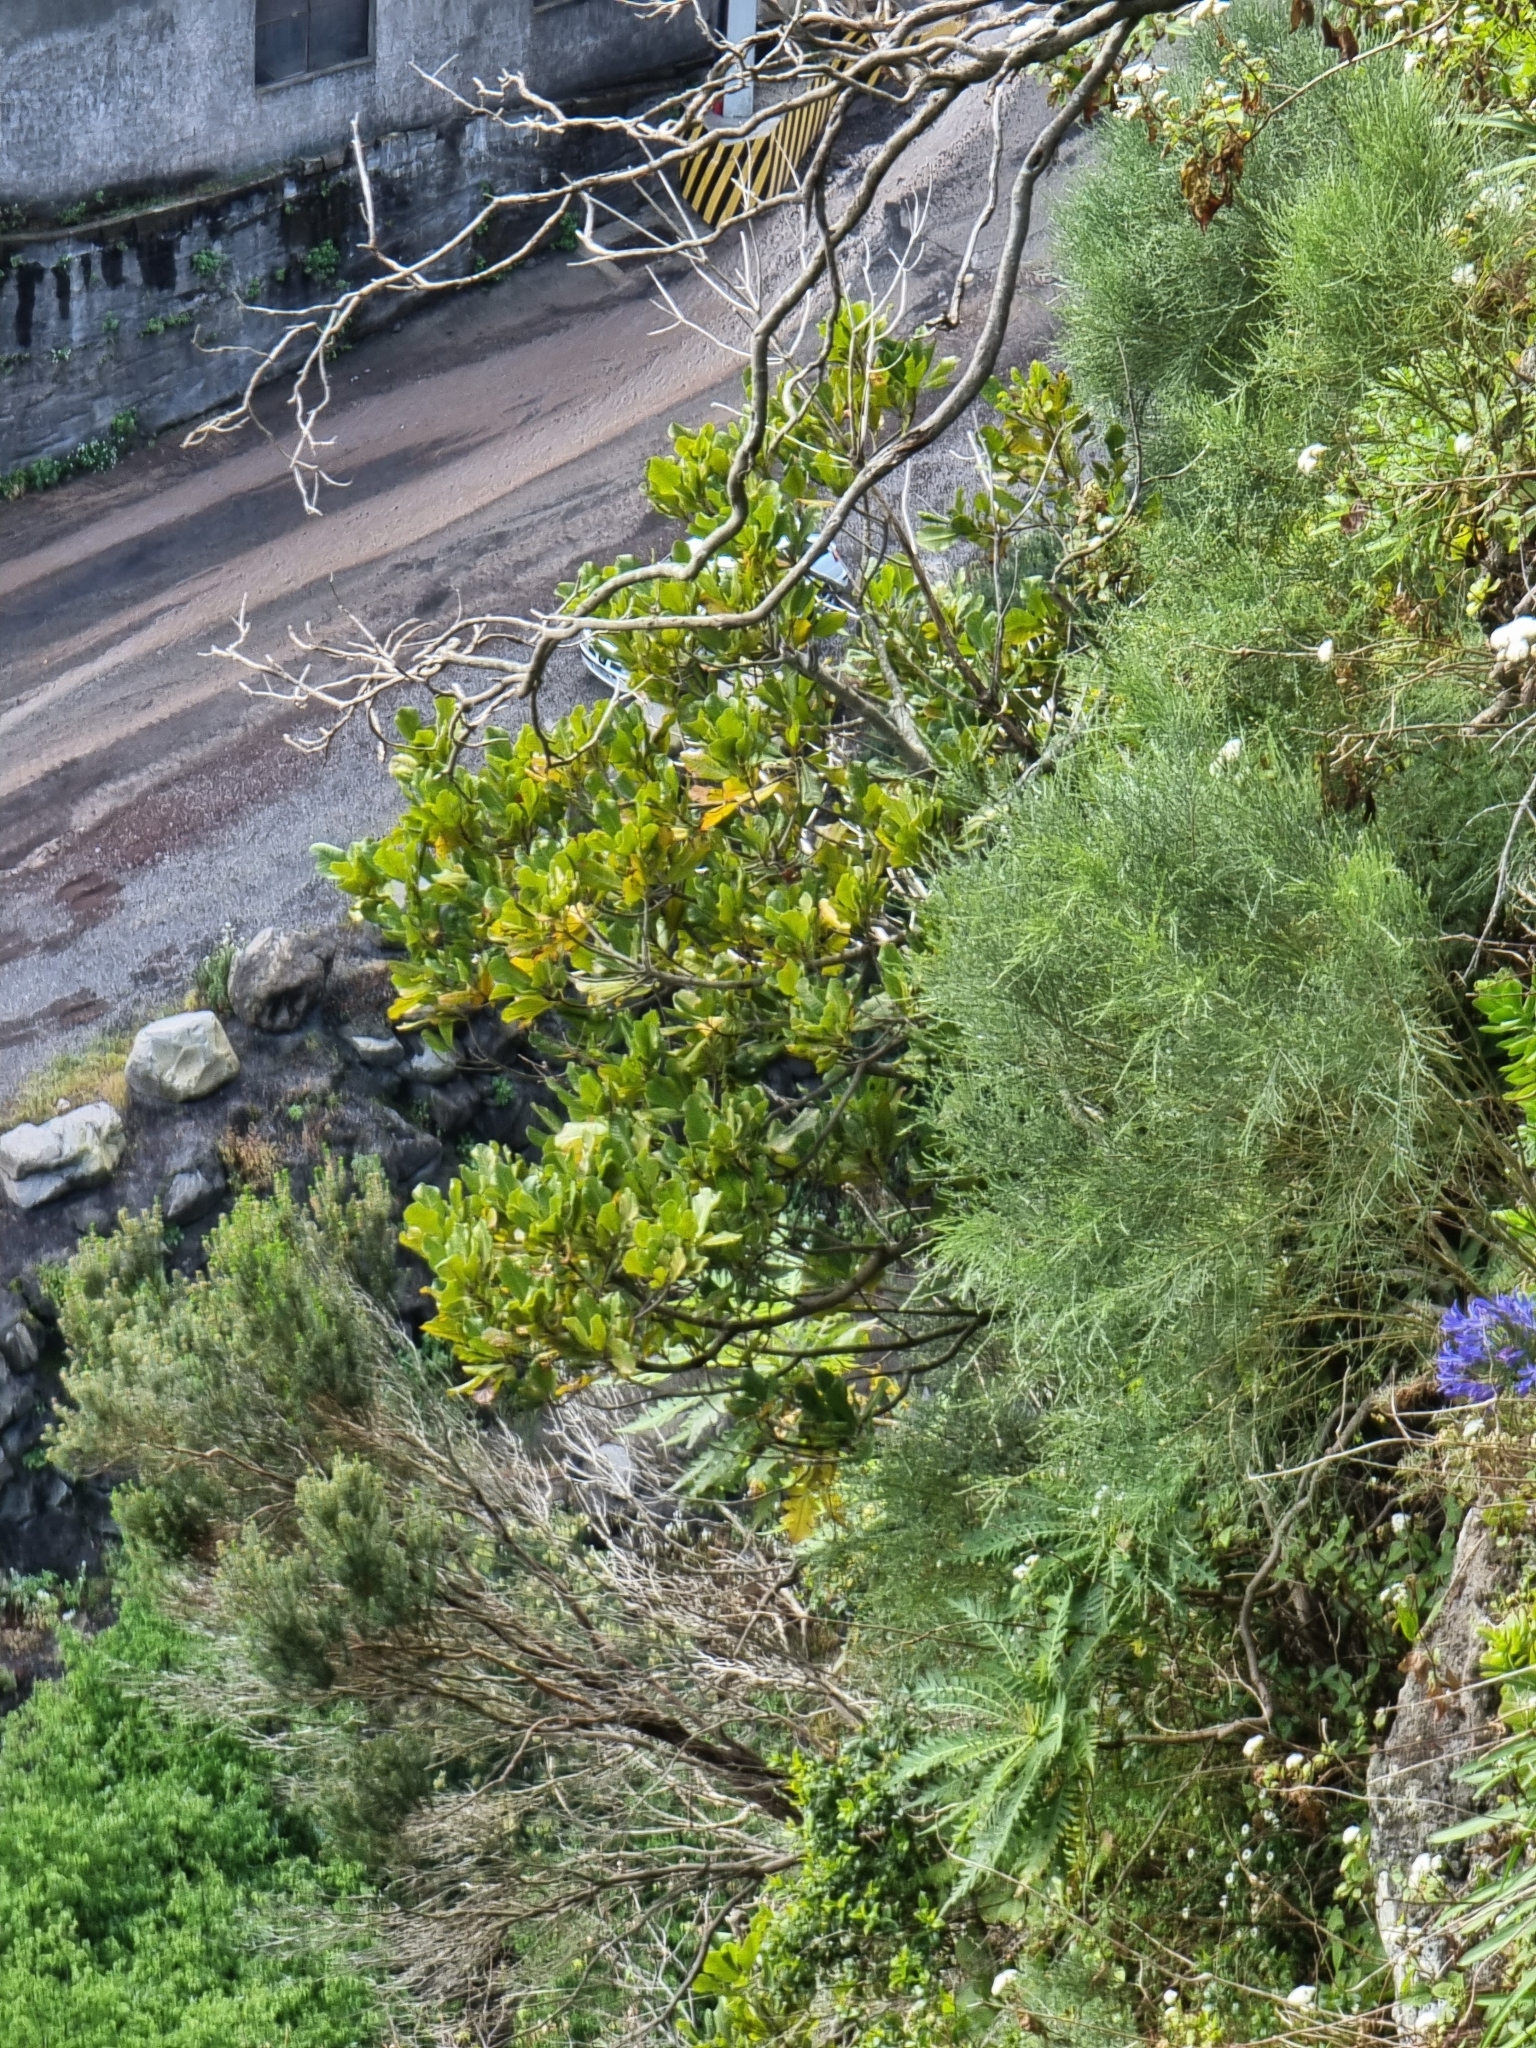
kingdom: Plantae
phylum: Tracheophyta
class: Magnoliopsida
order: Ericales
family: Sapotaceae
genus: Sideroxylon
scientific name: Sideroxylon mirmulans
